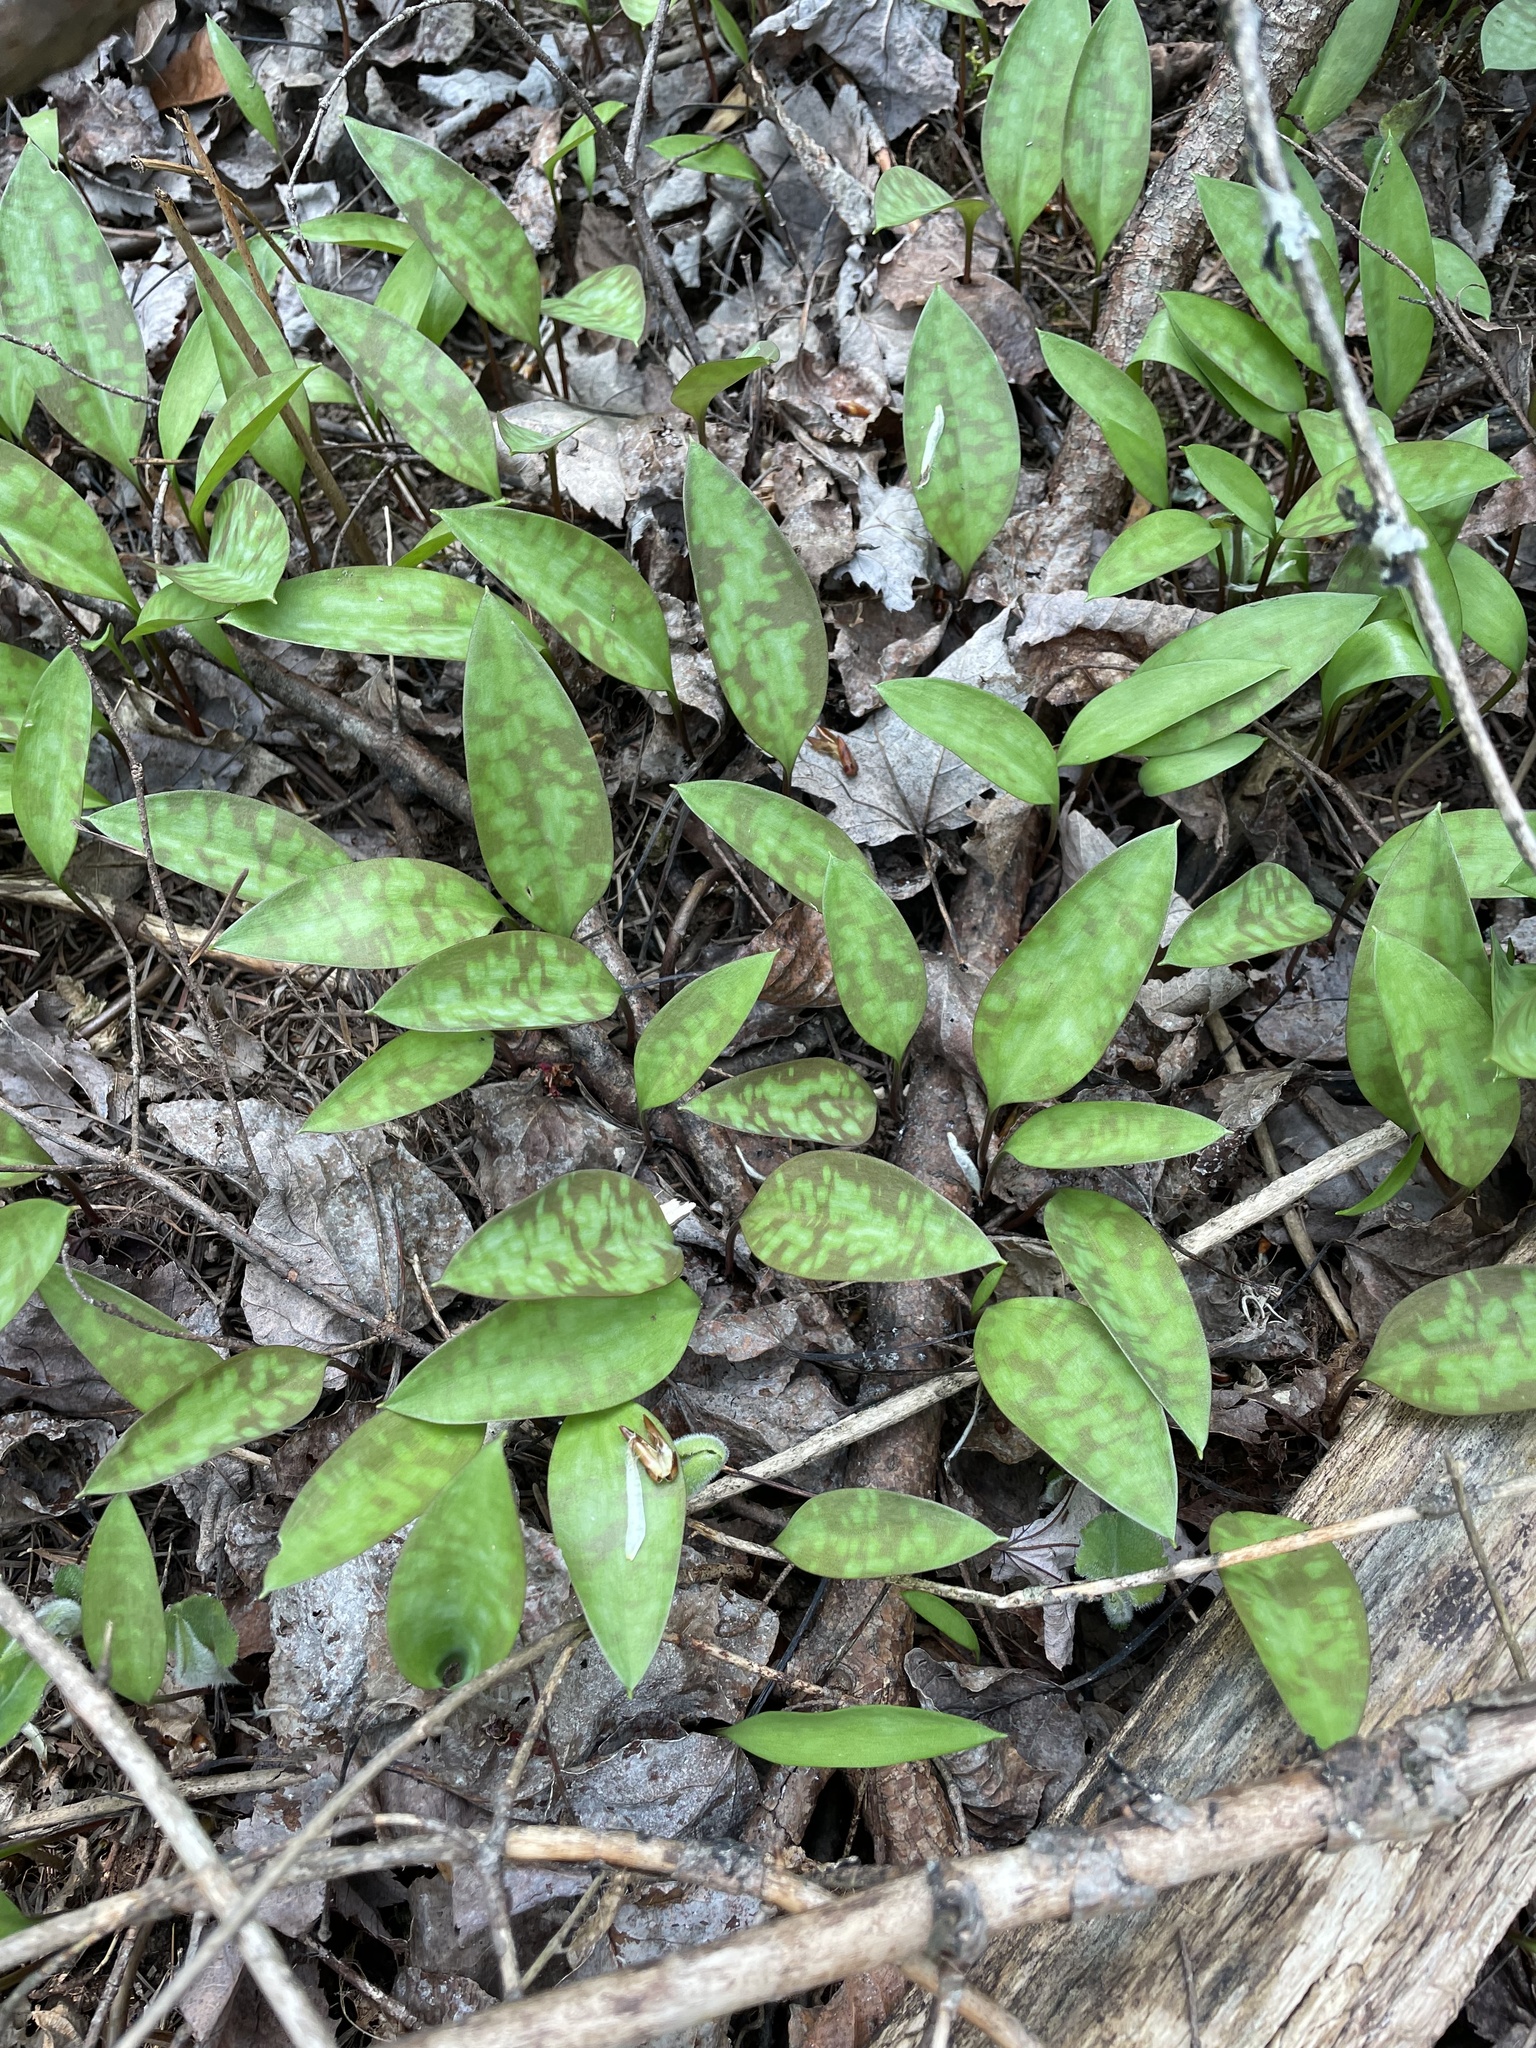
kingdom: Plantae
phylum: Tracheophyta
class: Liliopsida
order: Liliales
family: Liliaceae
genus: Erythronium
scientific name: Erythronium americanum
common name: Yellow adder's-tongue
